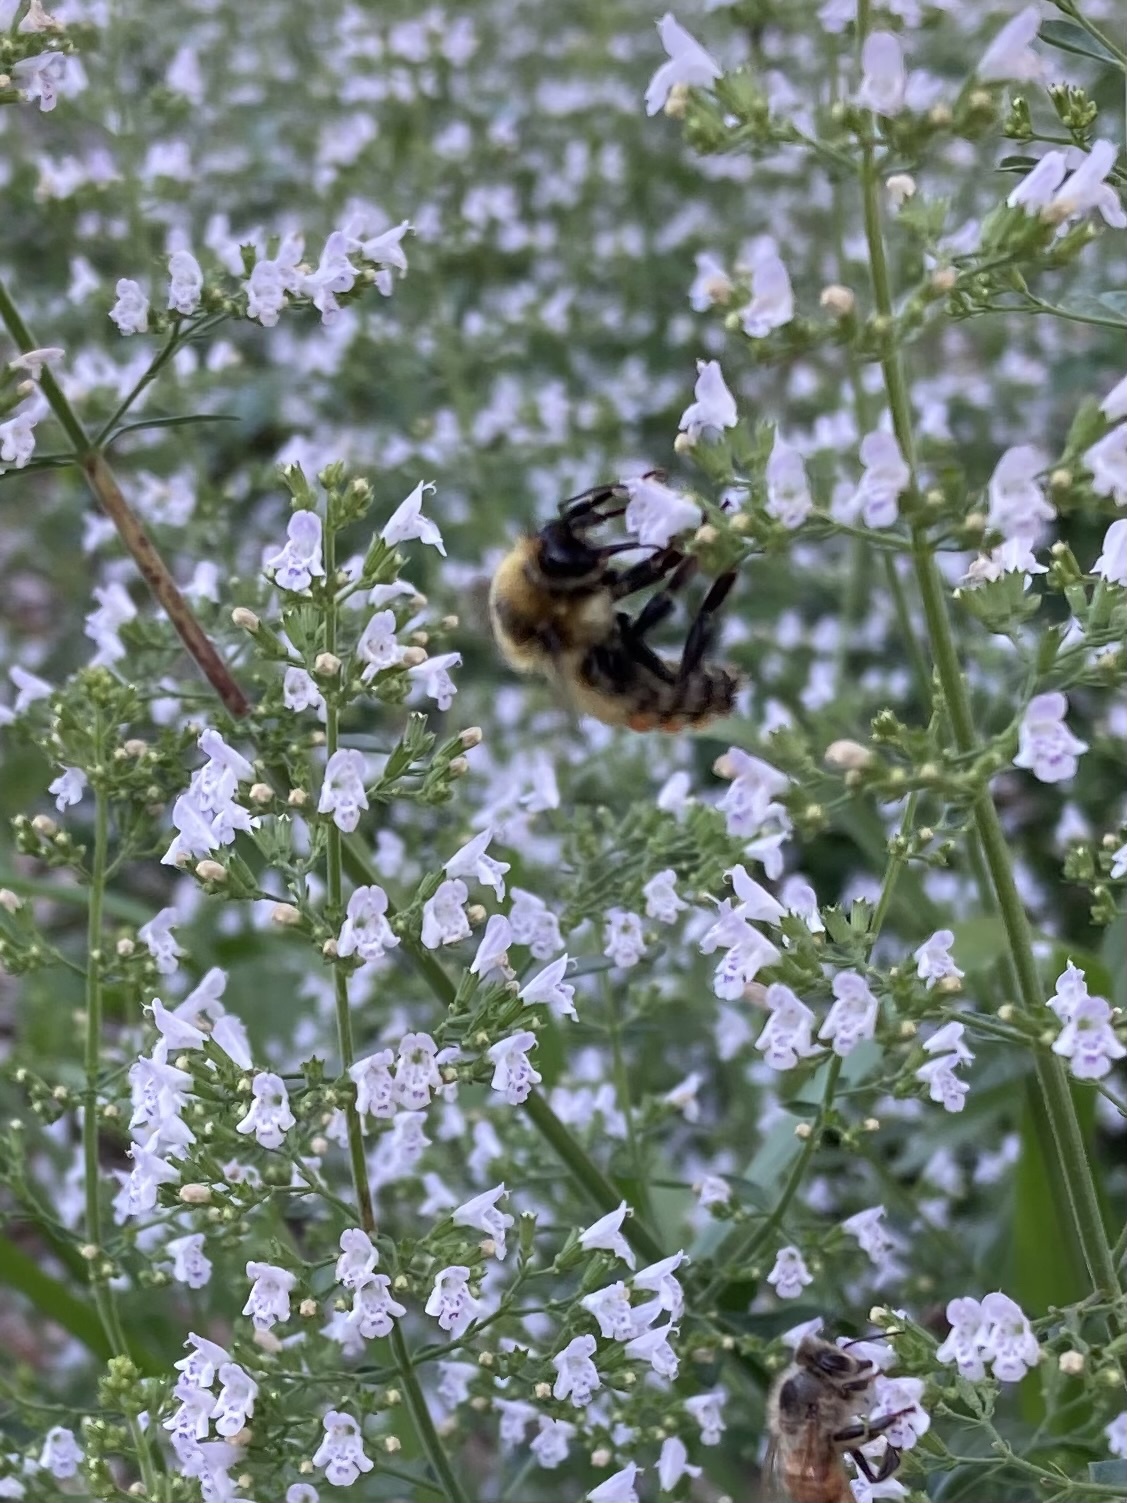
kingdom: Animalia
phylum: Arthropoda
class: Insecta
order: Hymenoptera
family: Apidae
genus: Bombus
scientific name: Bombus rufocinctus
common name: Red-belted bumble bee
